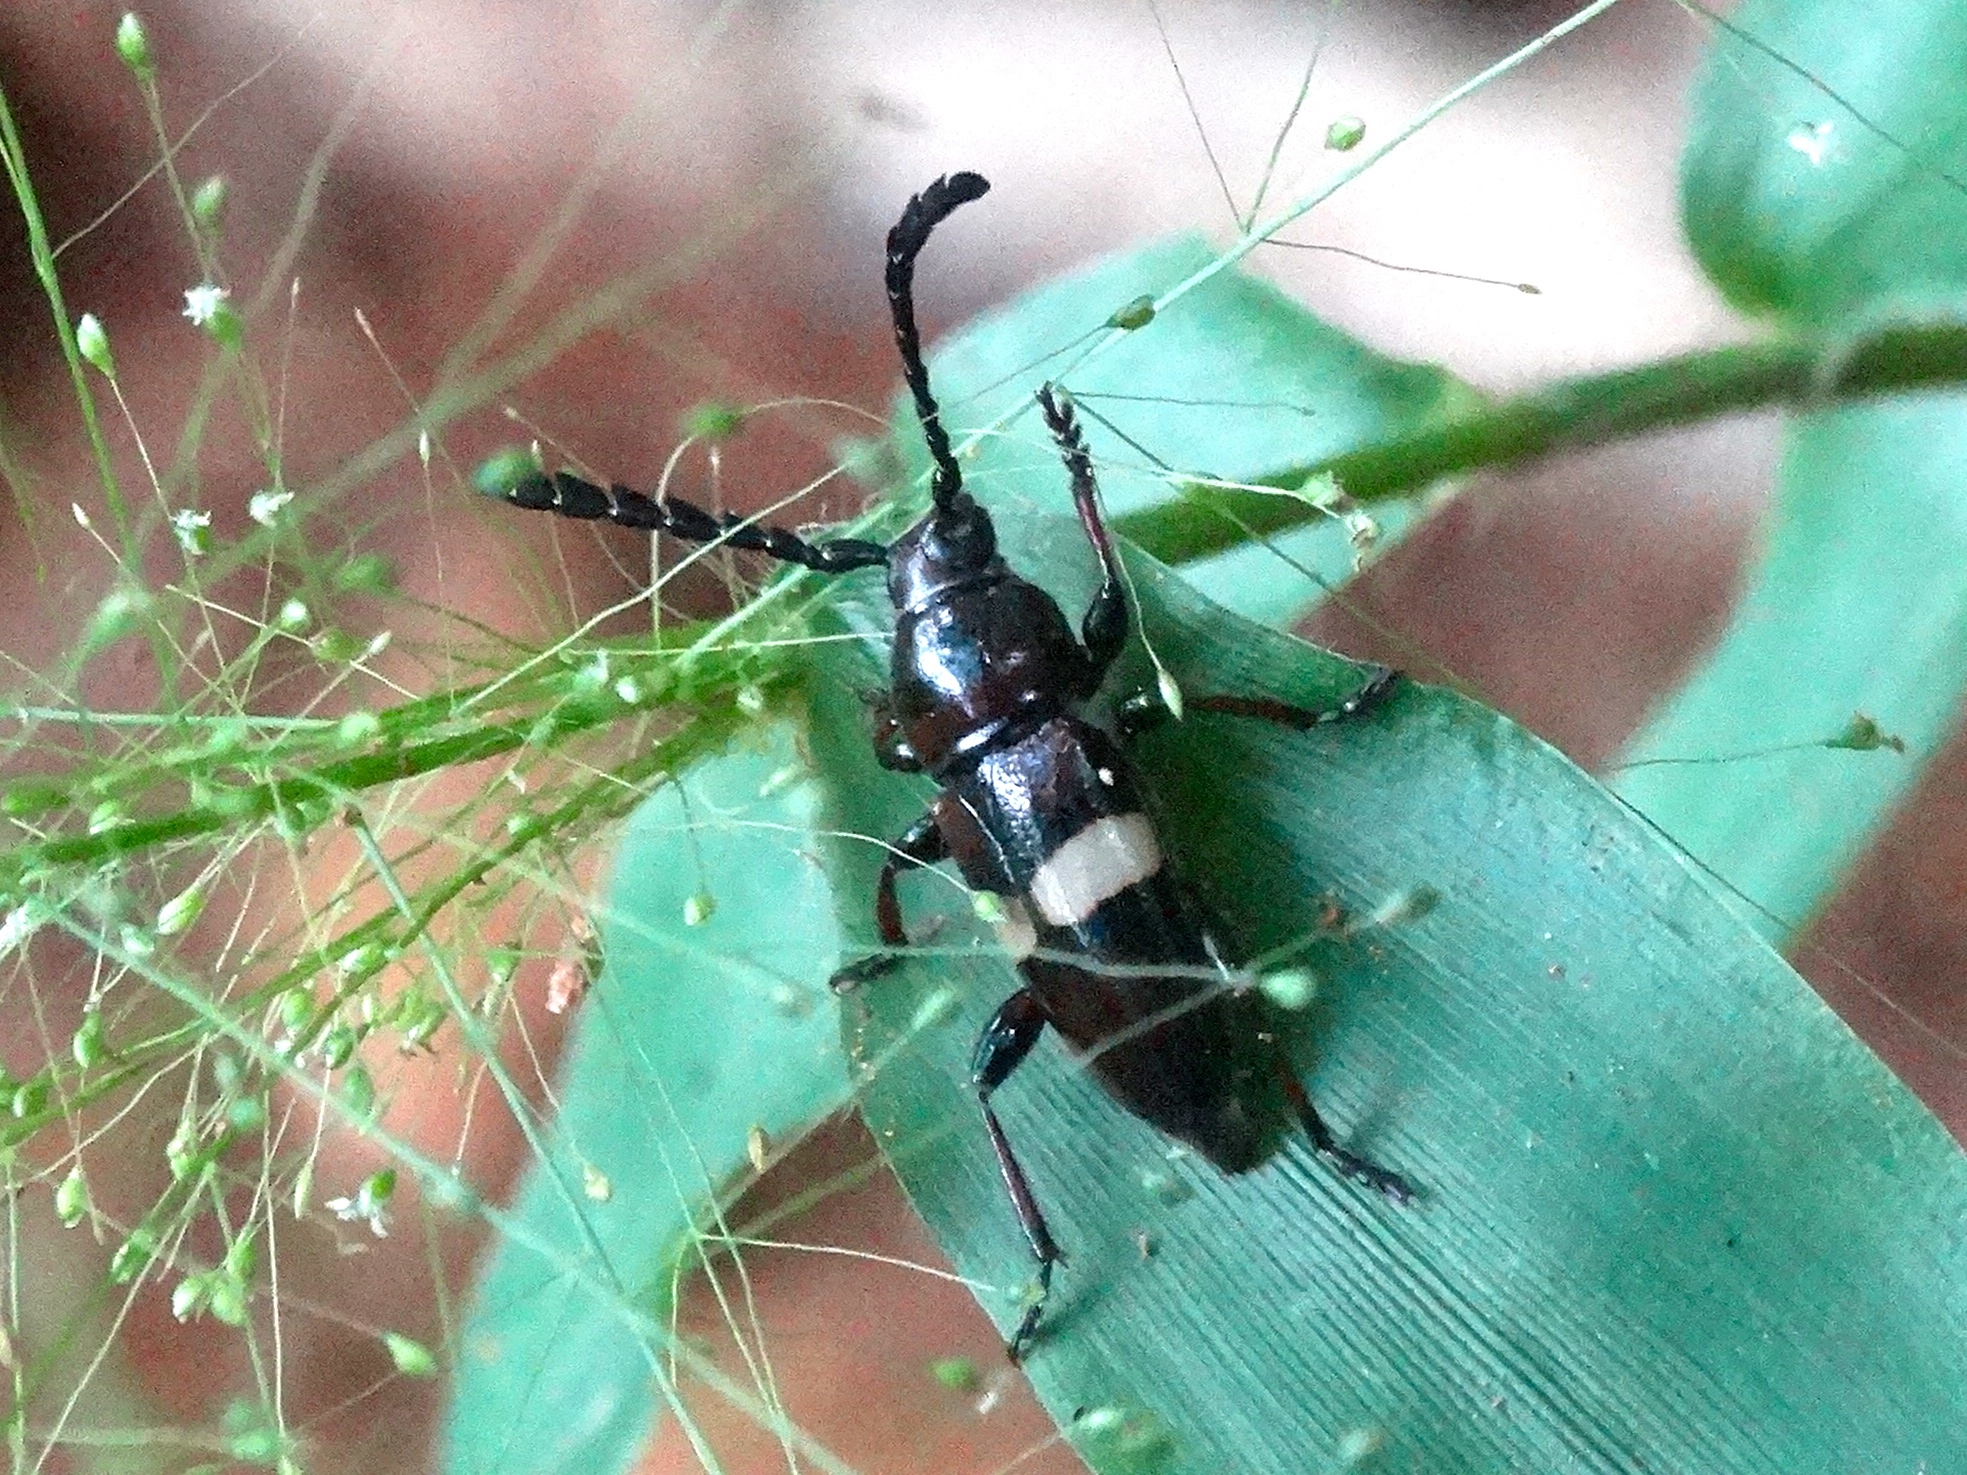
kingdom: Animalia
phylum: Arthropoda
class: Insecta
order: Coleoptera
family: Cerambycidae
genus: Lissonotus
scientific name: Lissonotus flavocinctus
